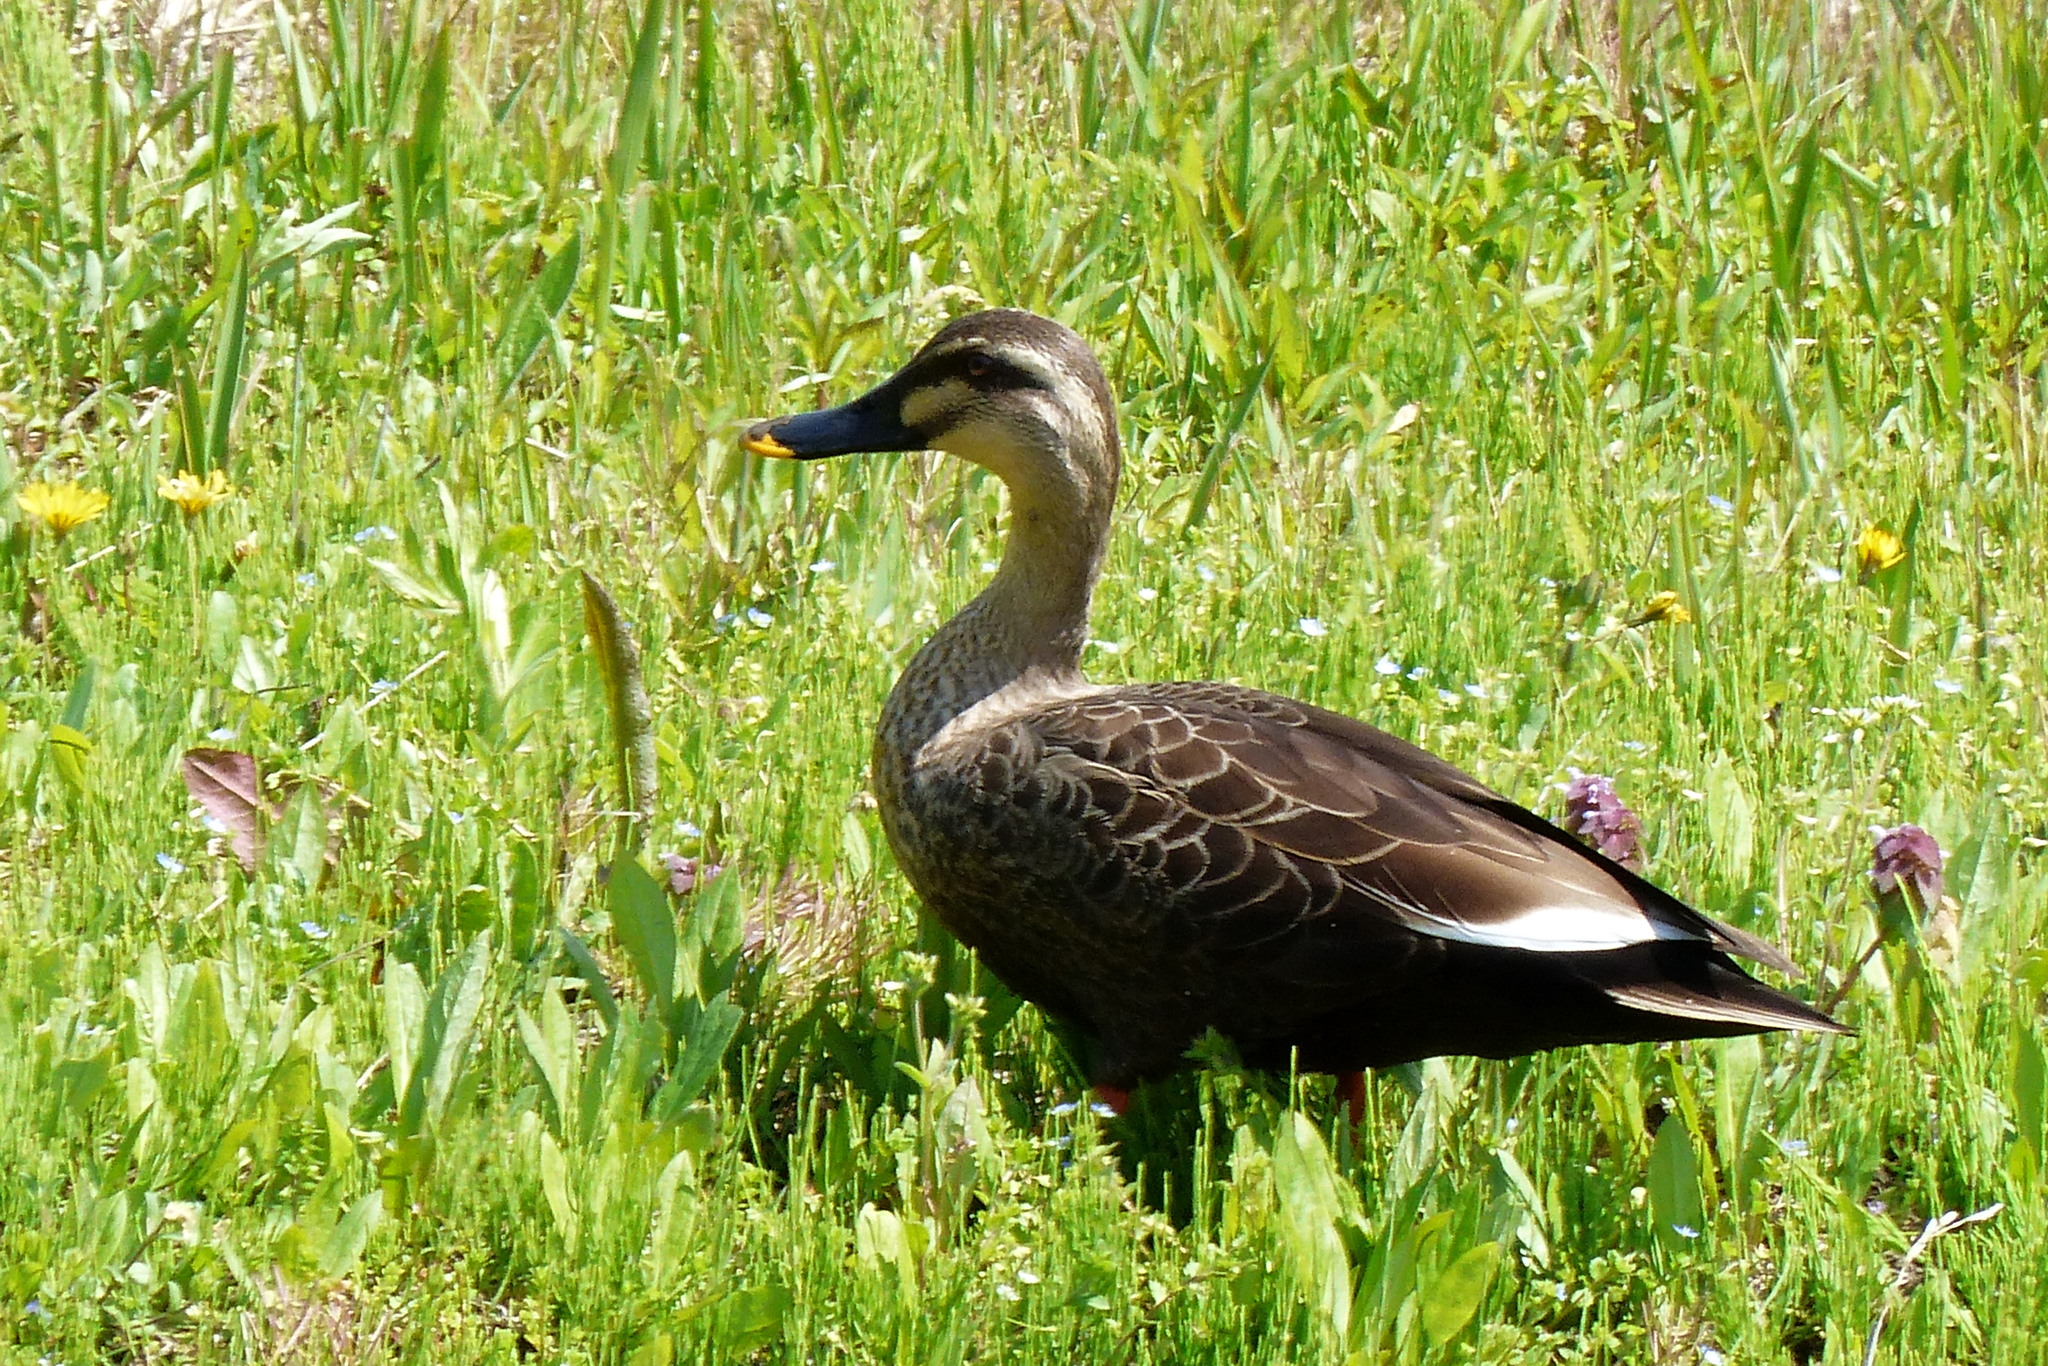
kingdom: Animalia
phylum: Chordata
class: Aves
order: Anseriformes
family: Anatidae
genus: Anas
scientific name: Anas zonorhyncha
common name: Eastern spot-billed duck
